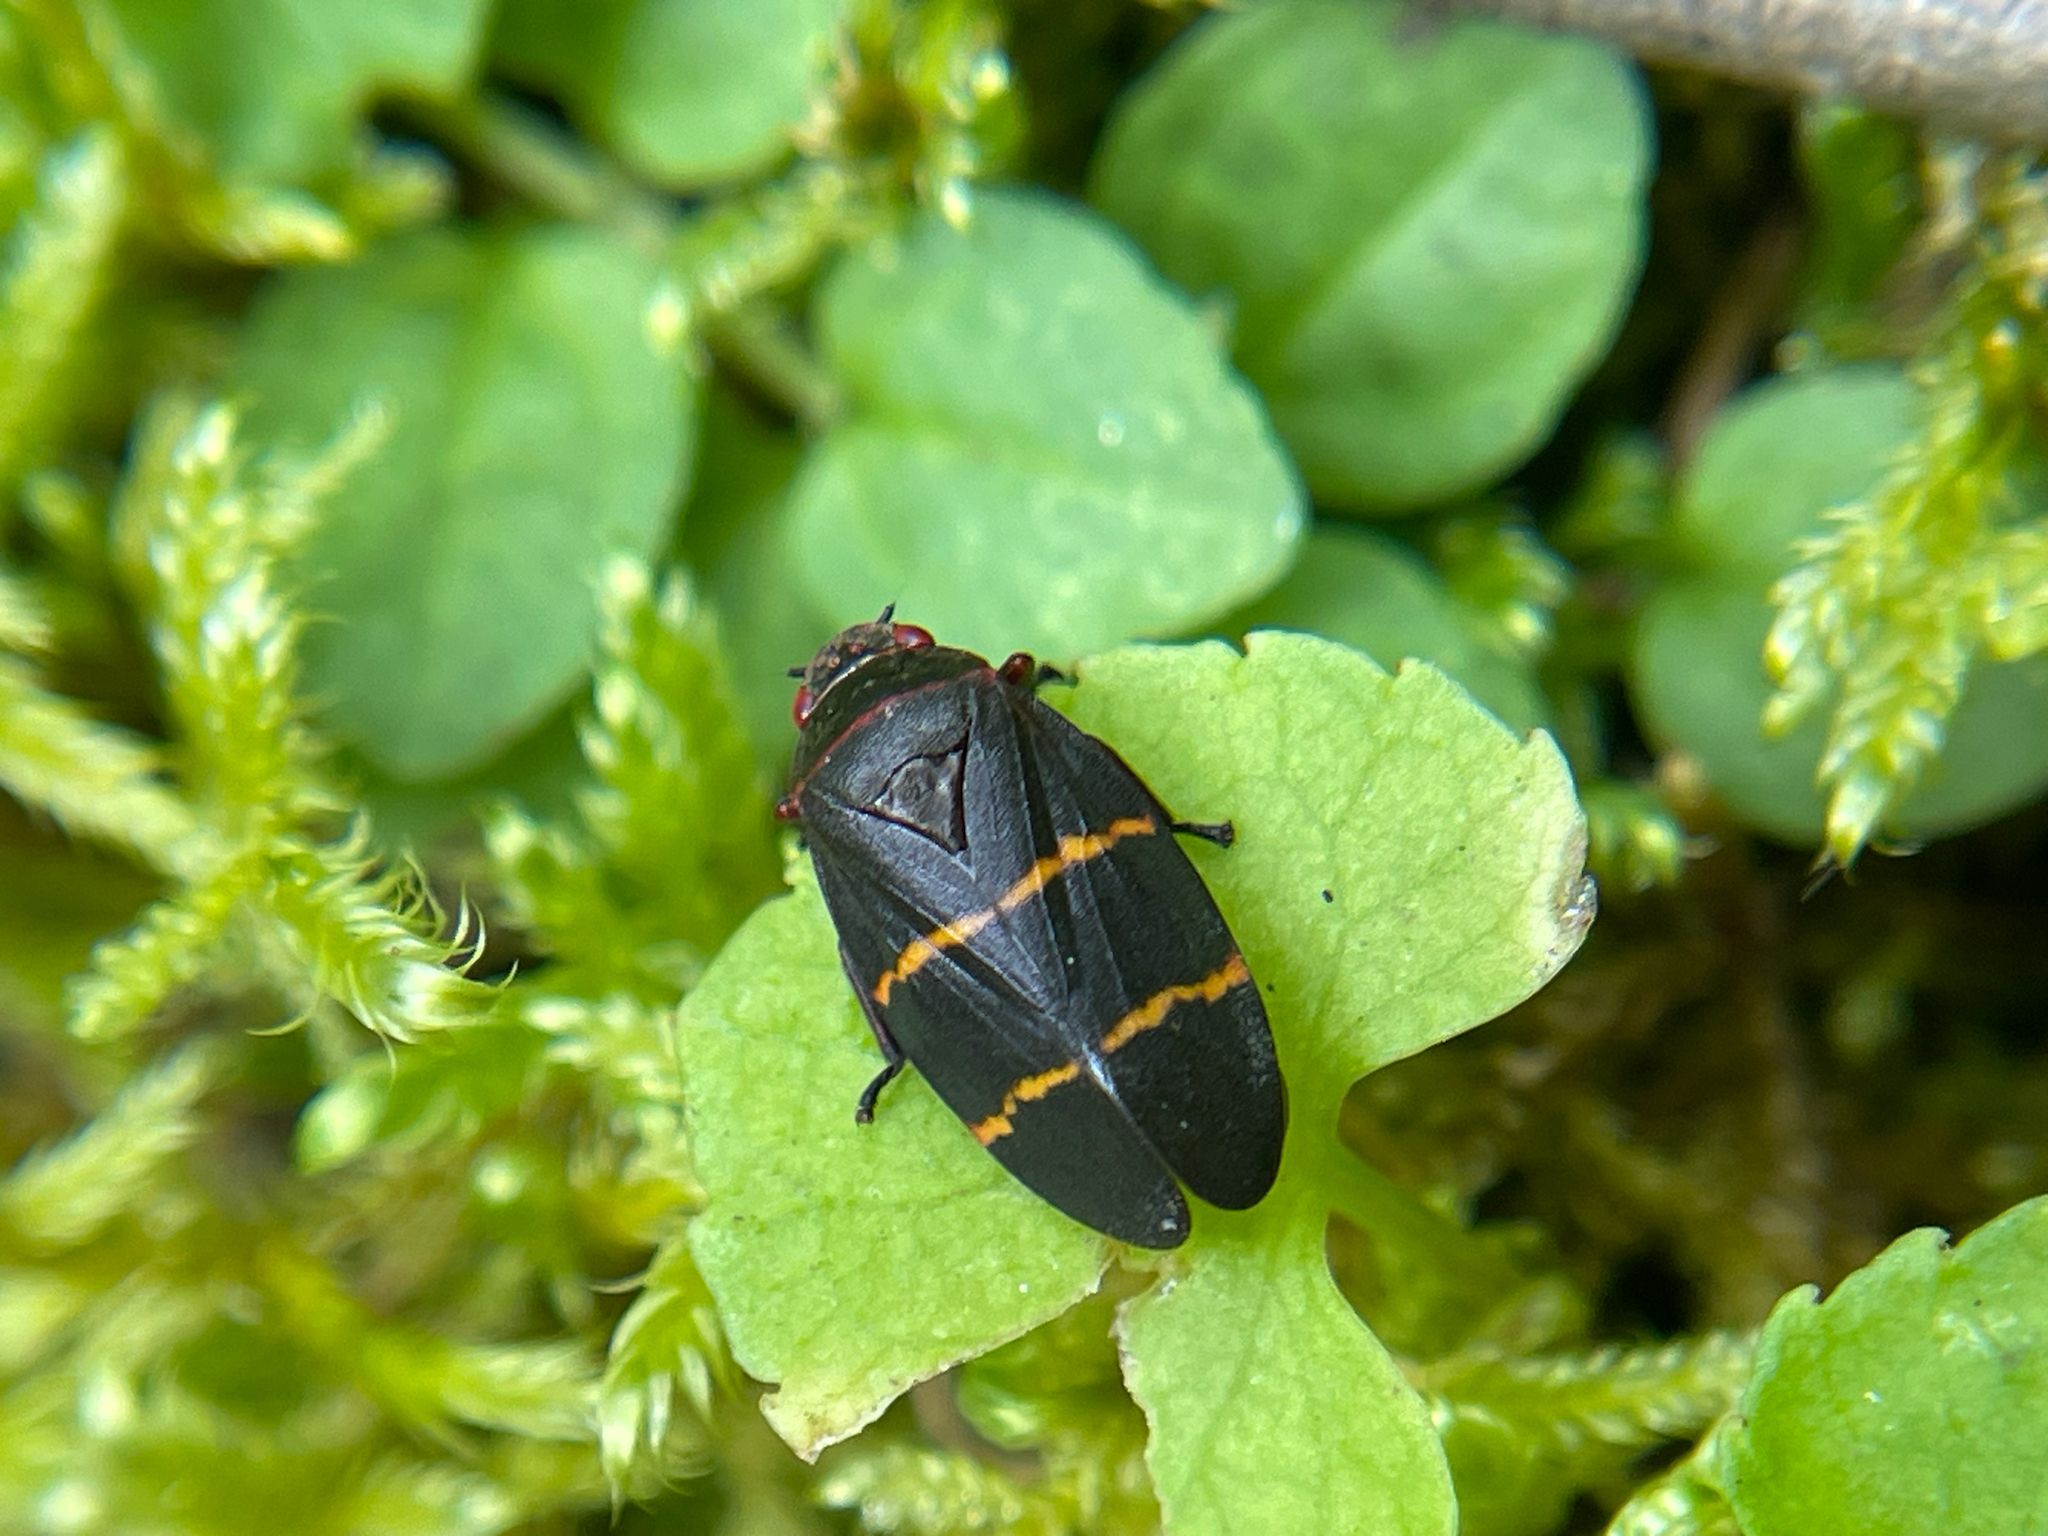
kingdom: Animalia
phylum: Arthropoda
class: Insecta
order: Hemiptera
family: Cercopidae
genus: Prosapia
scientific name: Prosapia bicincta
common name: Twolined spittlebug
